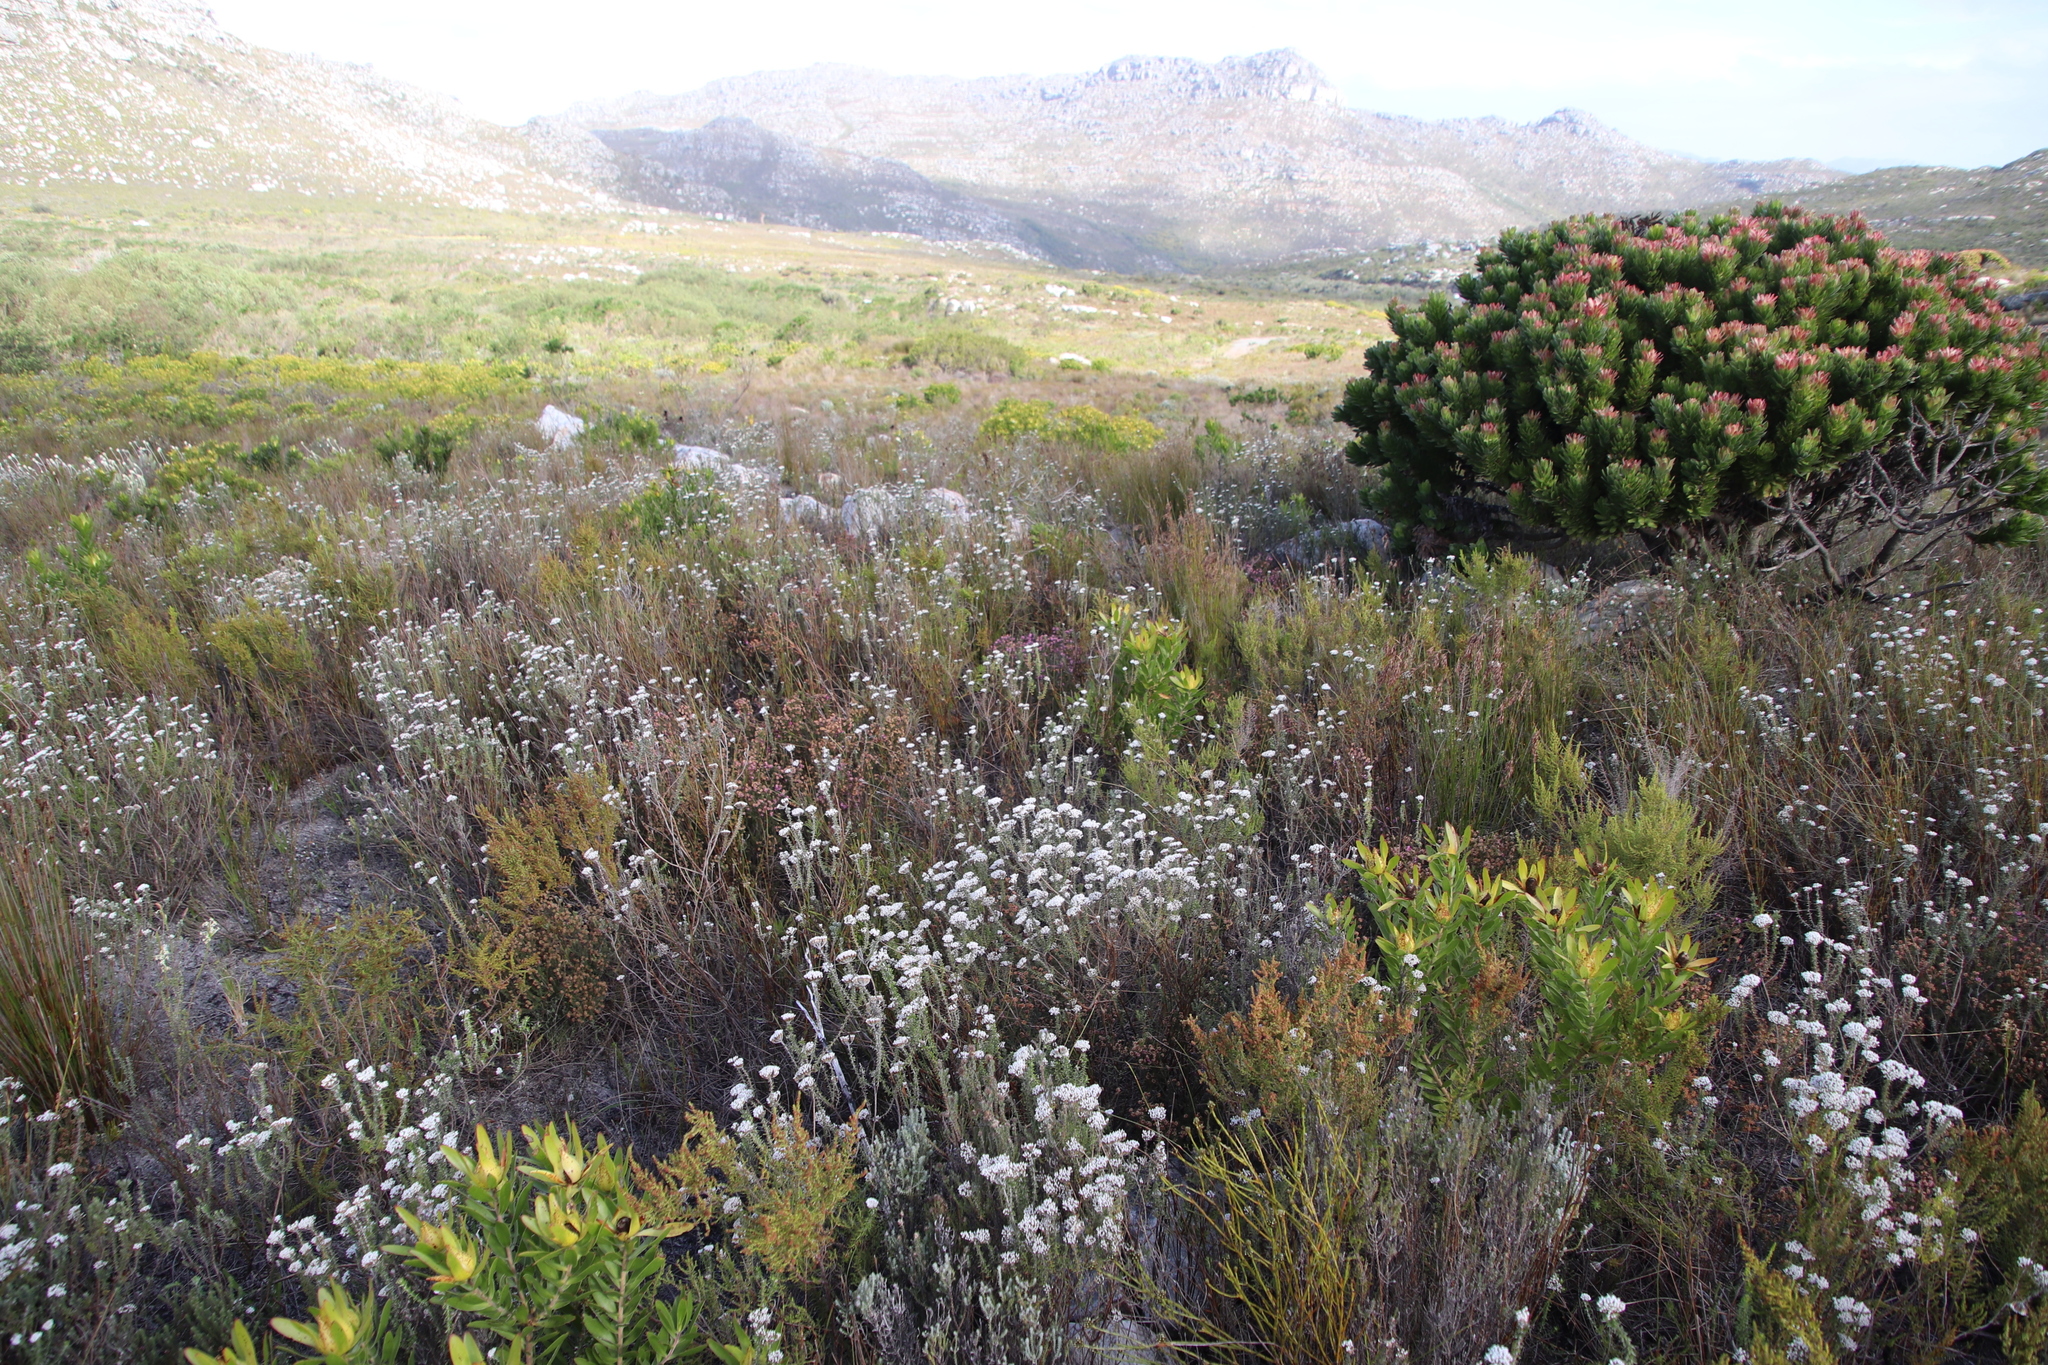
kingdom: Plantae
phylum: Tracheophyta
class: Magnoliopsida
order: Asterales
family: Asteraceae
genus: Metalasia
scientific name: Metalasia densa
